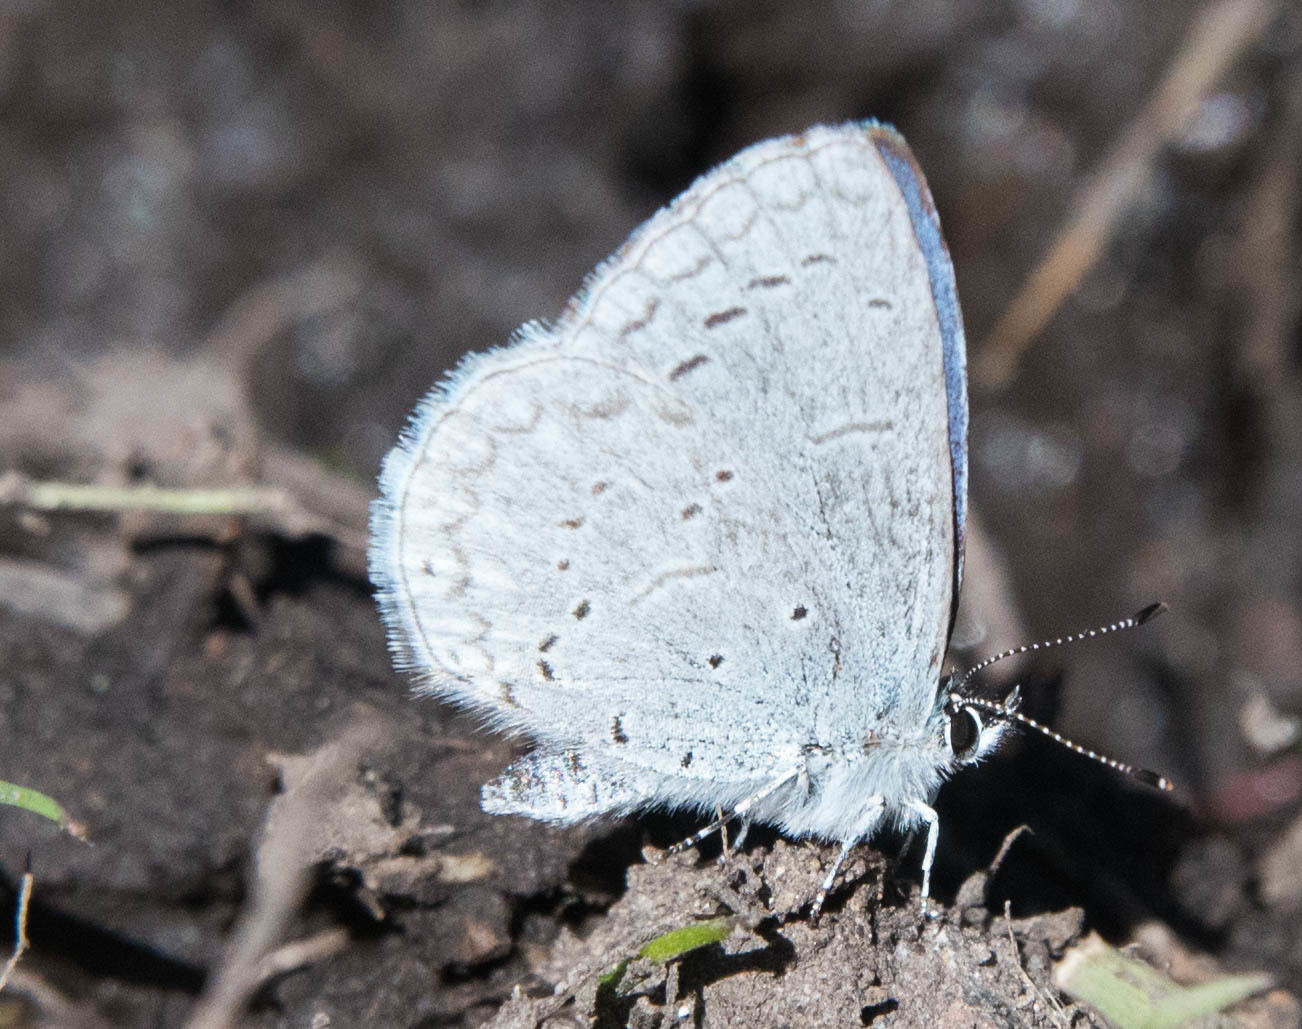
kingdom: Animalia
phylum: Arthropoda
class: Insecta
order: Lepidoptera
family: Lycaenidae
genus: Celastrina
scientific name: Celastrina ladon
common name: Spring azure
